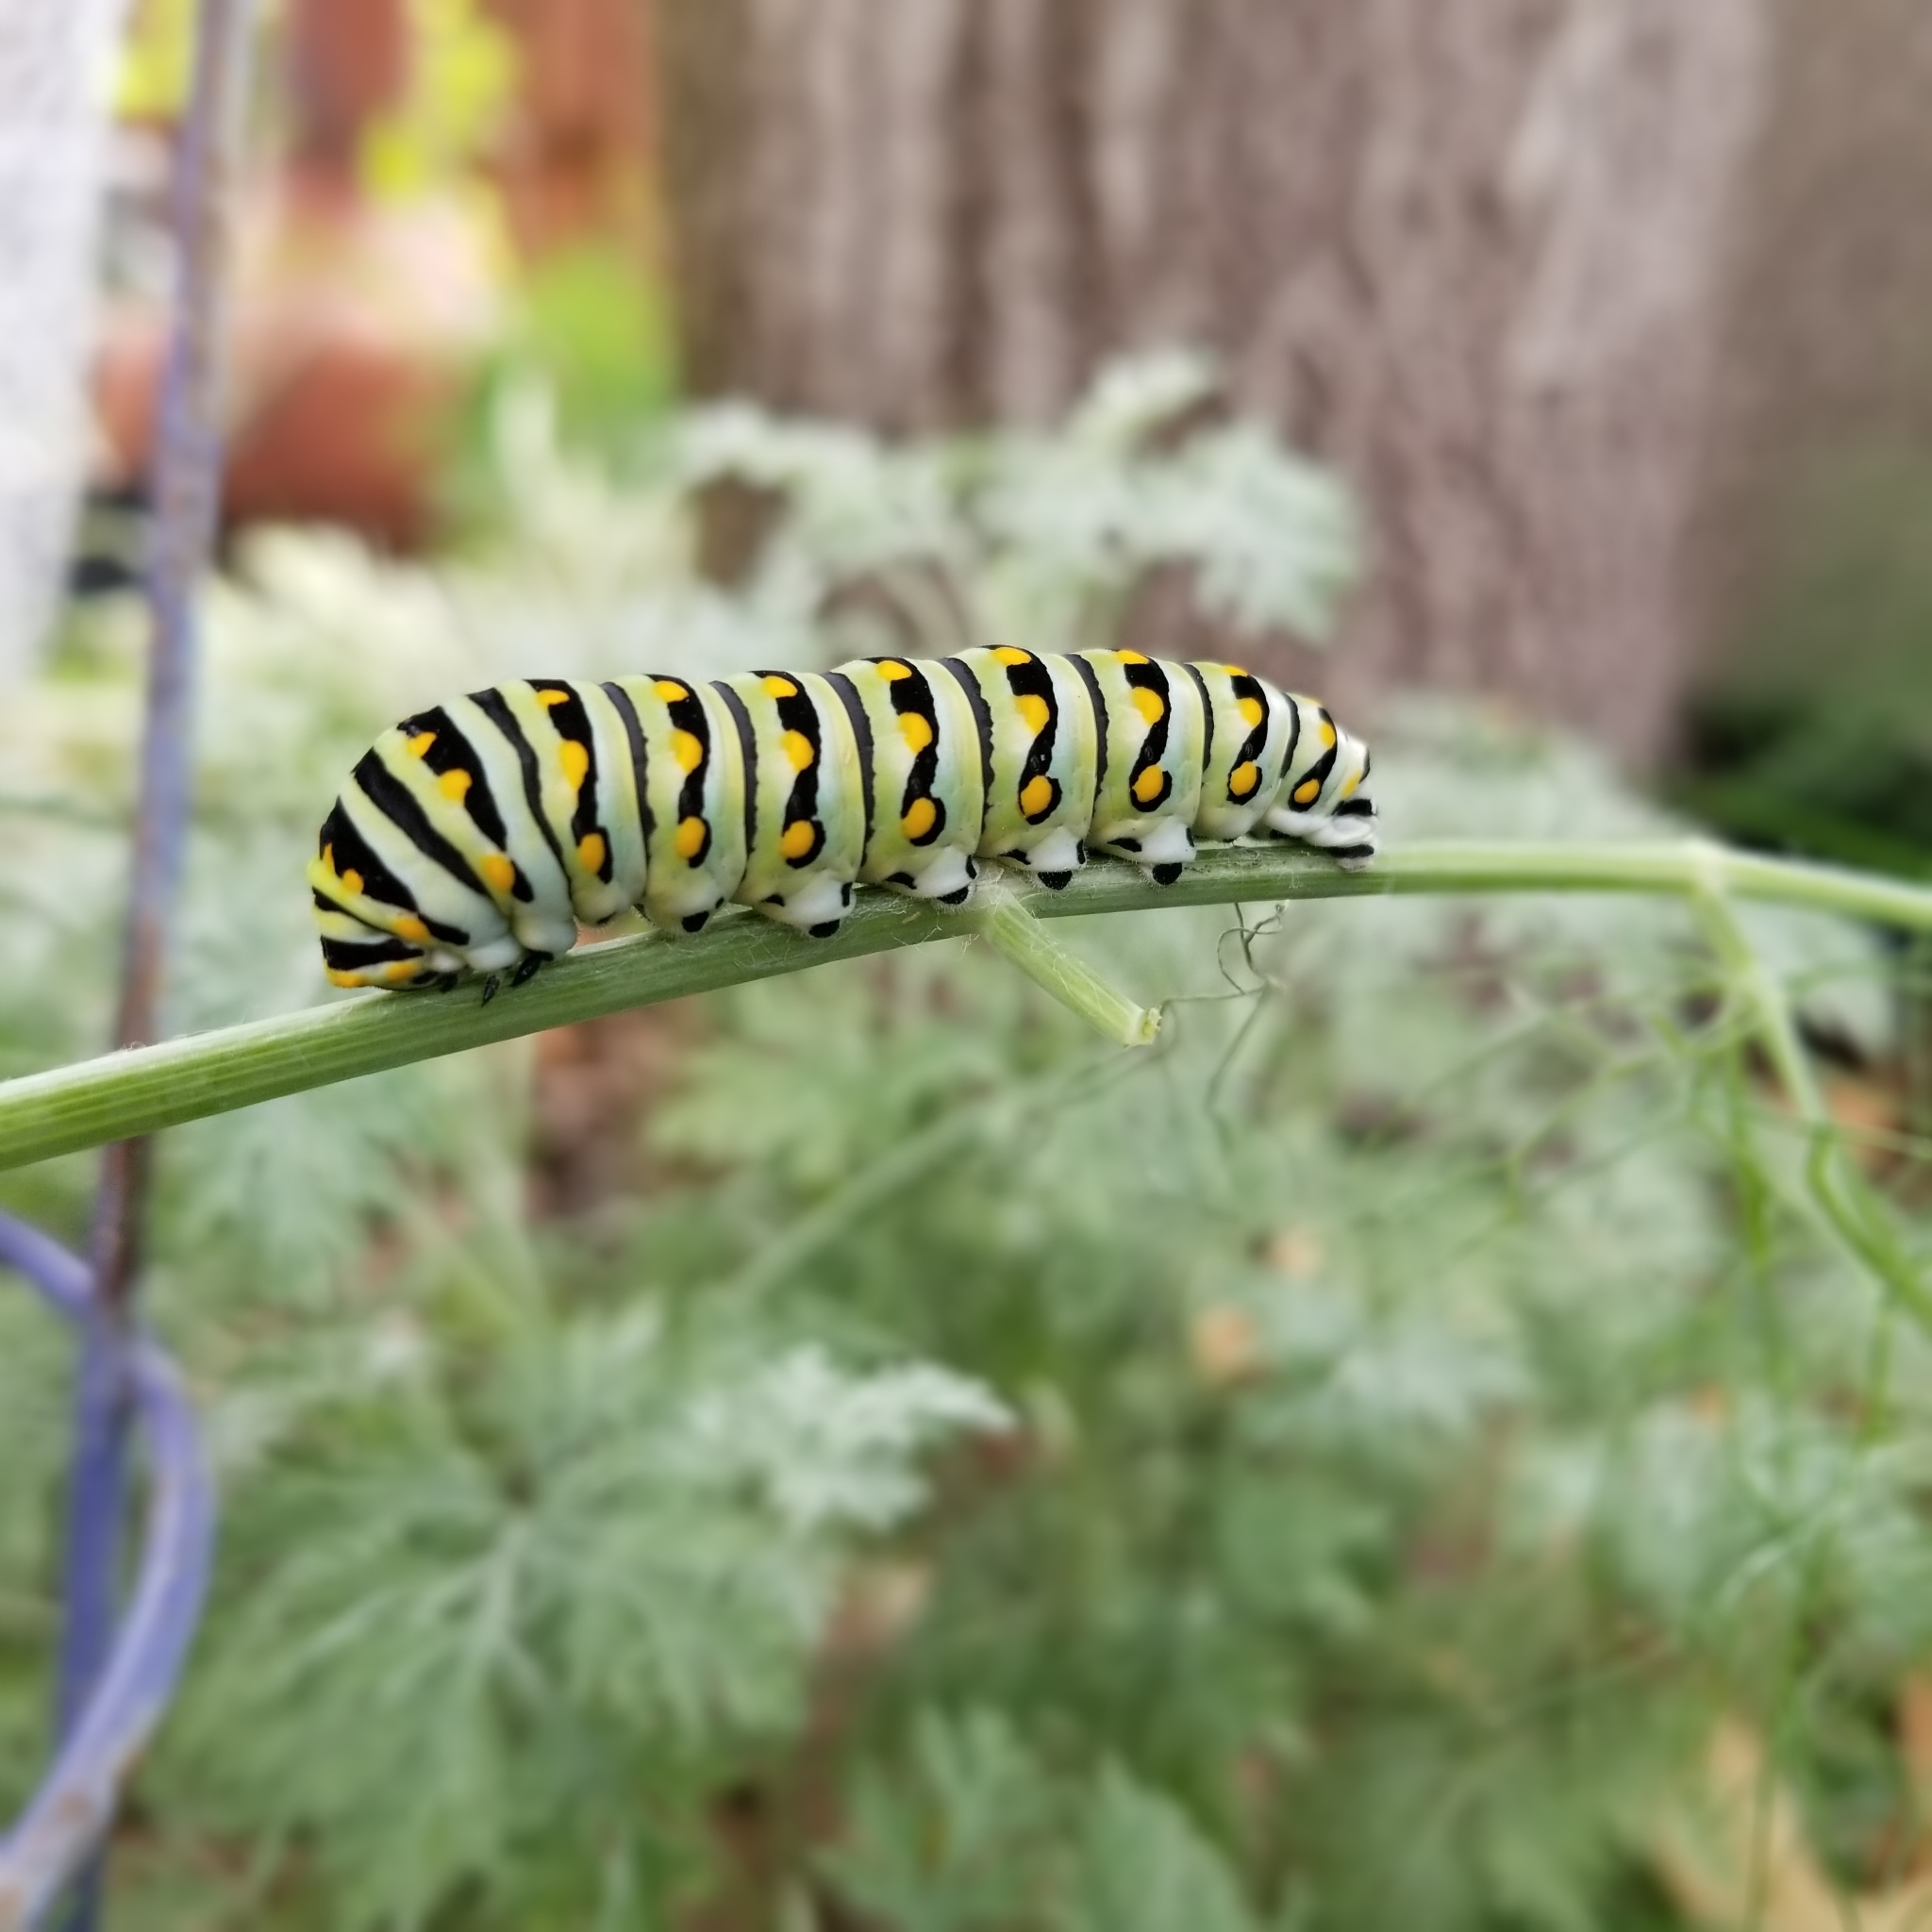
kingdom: Animalia
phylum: Arthropoda
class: Insecta
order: Lepidoptera
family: Papilionidae
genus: Papilio
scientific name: Papilio polyxenes
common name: Black swallowtail
